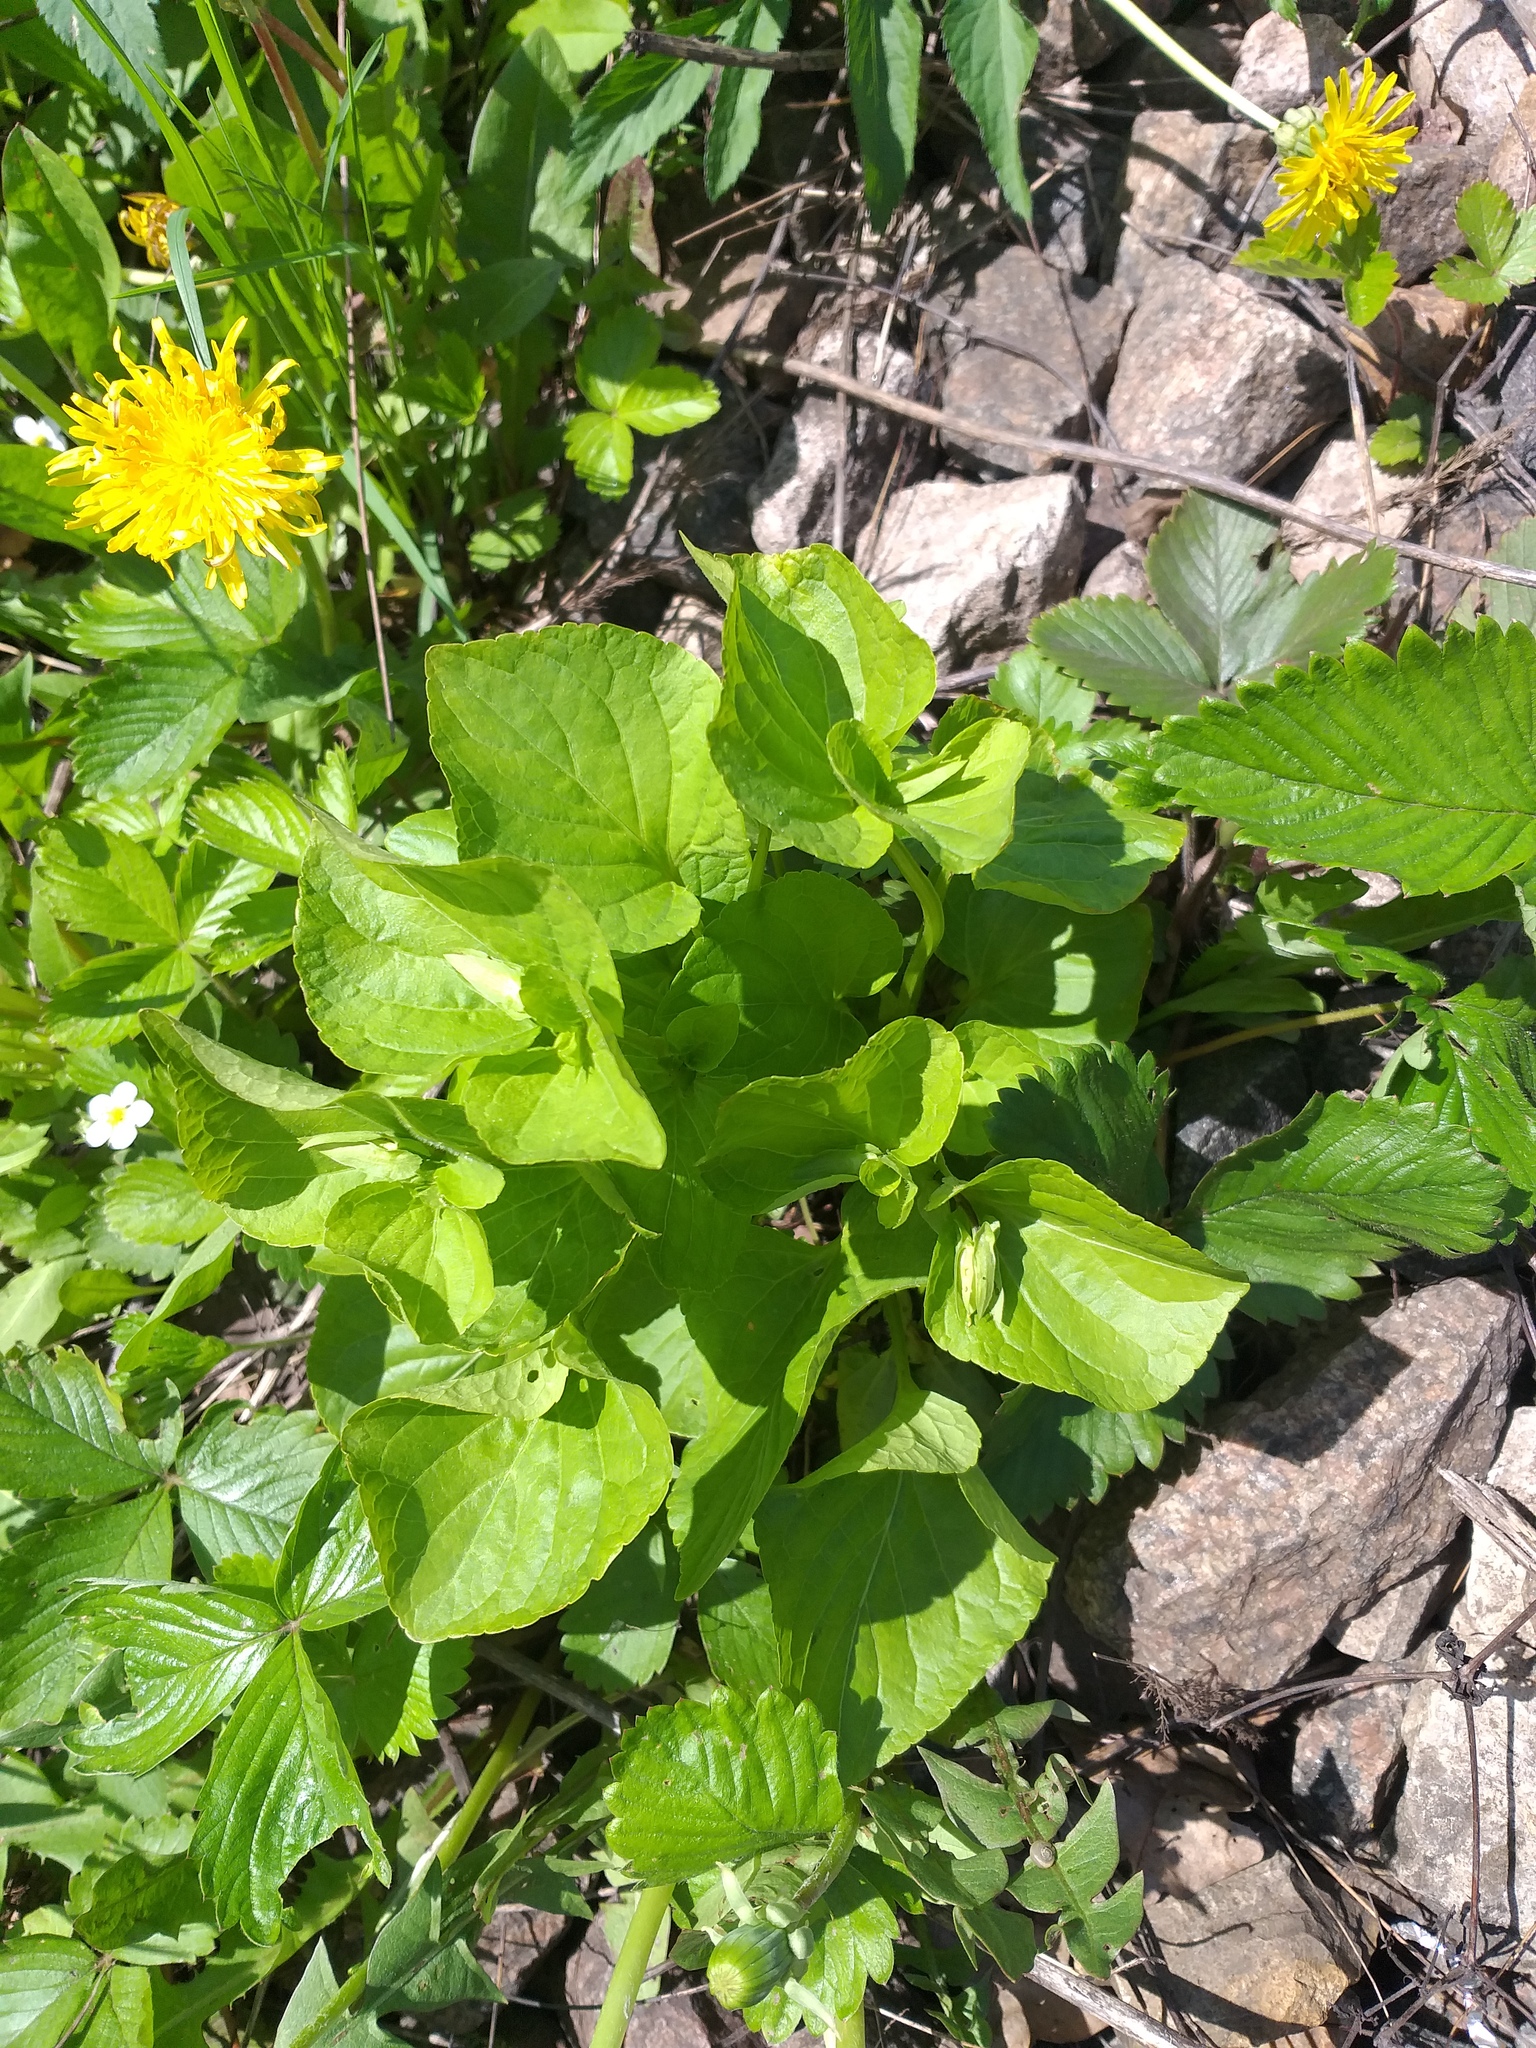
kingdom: Plantae
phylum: Tracheophyta
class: Magnoliopsida
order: Malpighiales
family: Violaceae
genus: Viola
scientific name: Viola mirabilis
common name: Wonder violet
